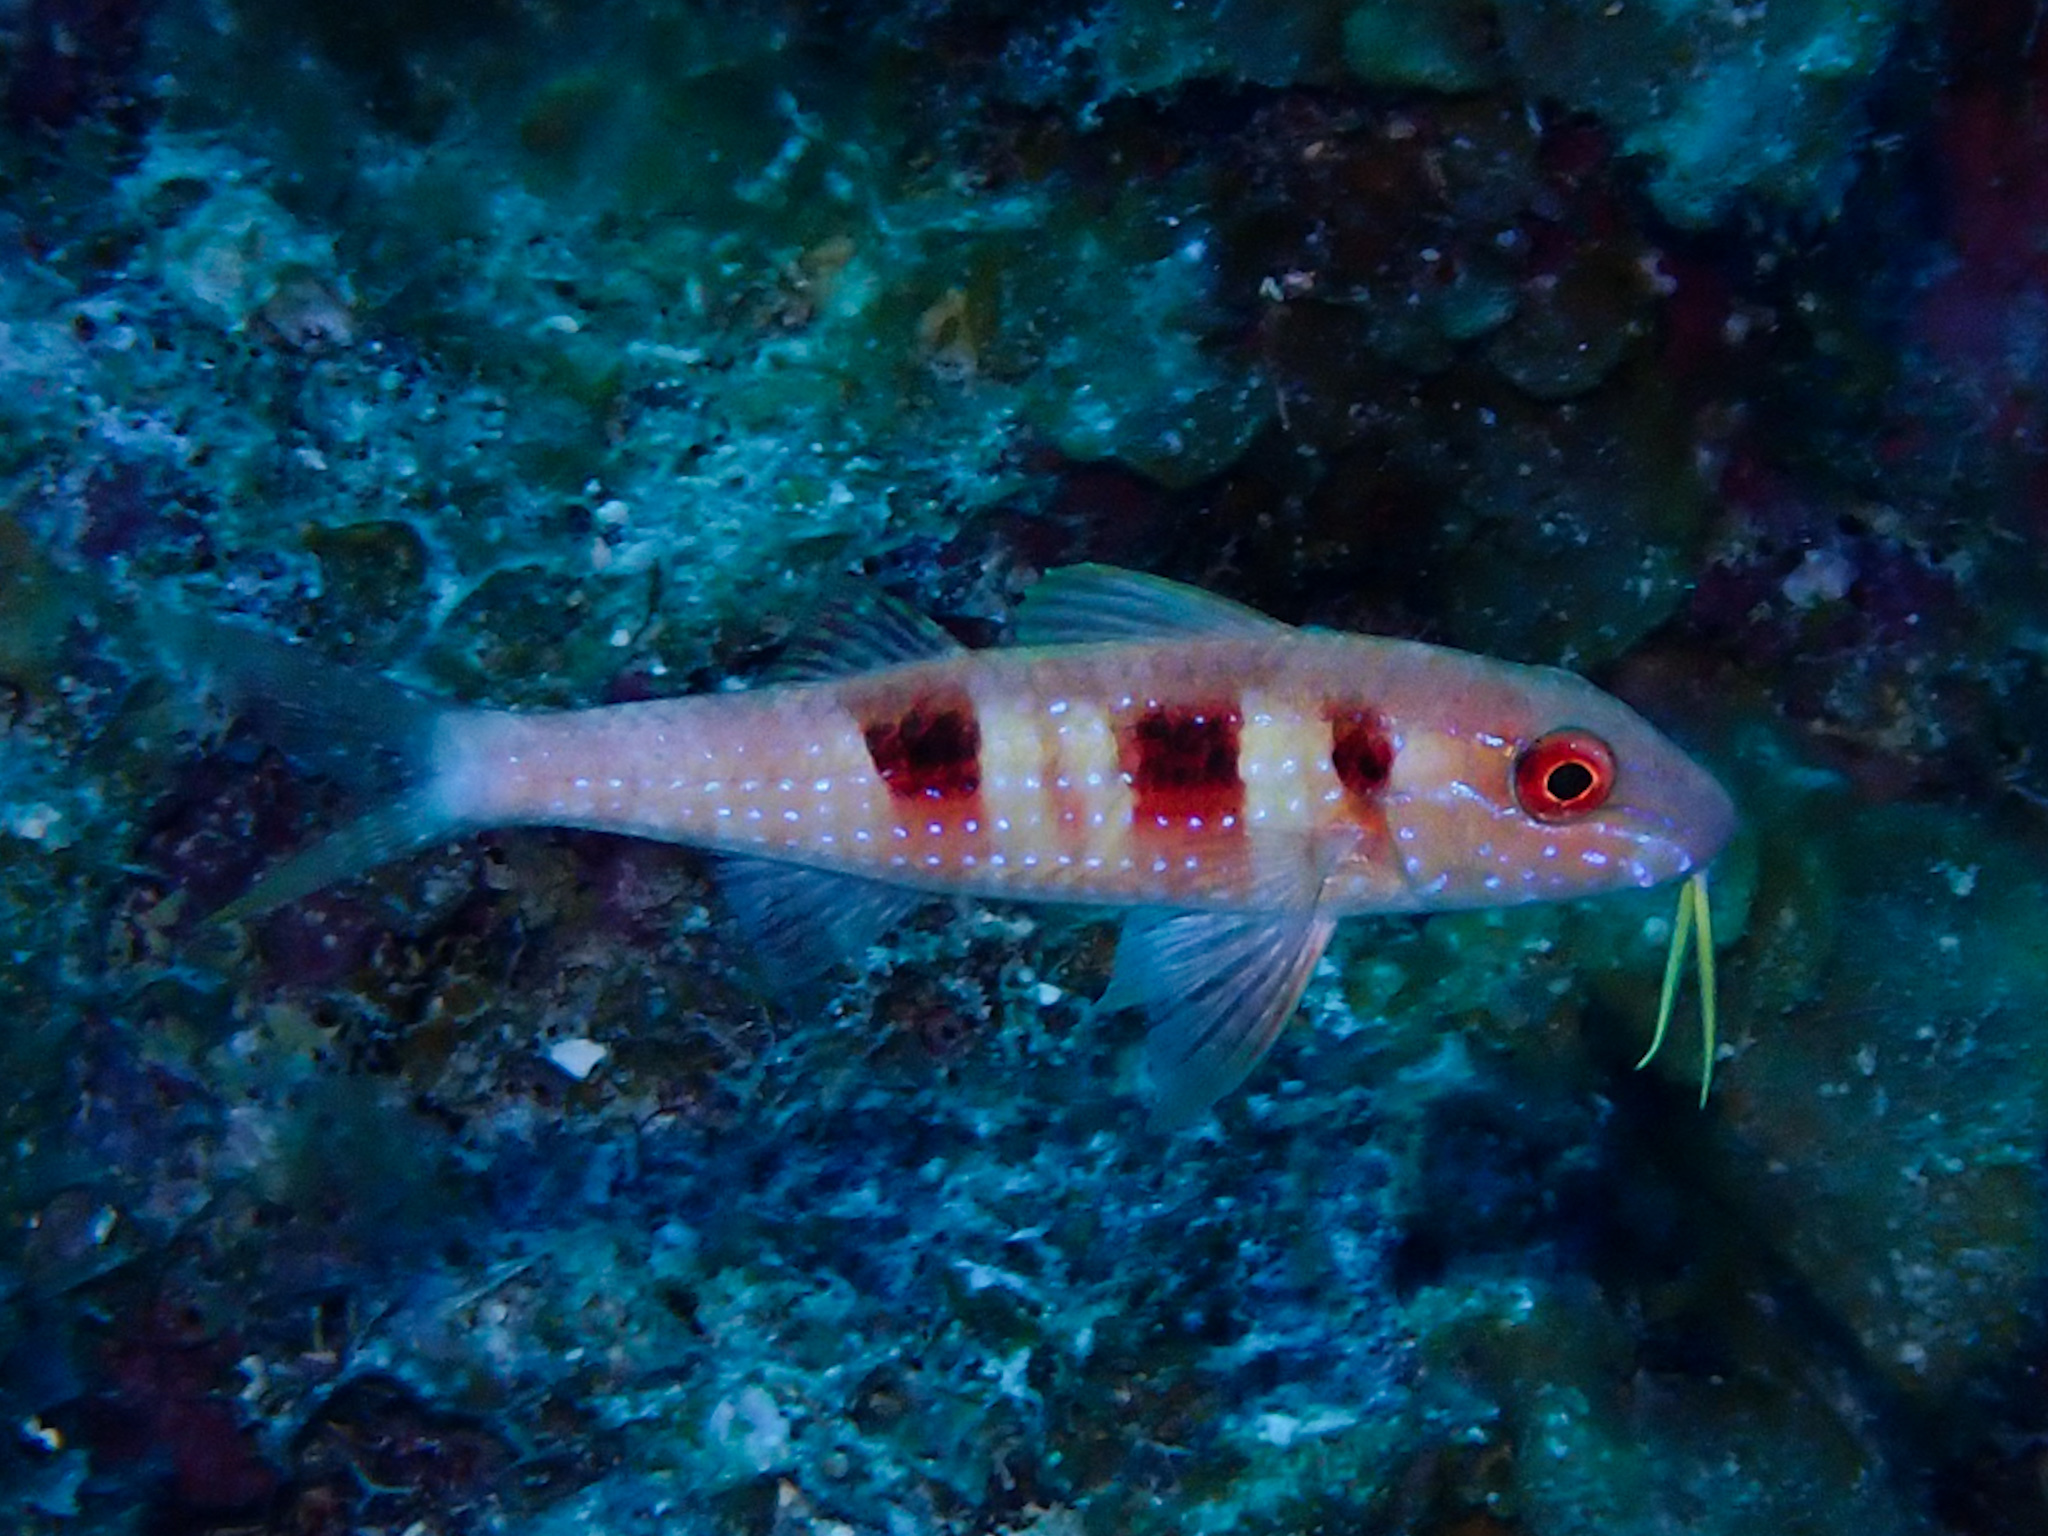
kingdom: Animalia
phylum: Chordata
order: Perciformes
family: Mullidae
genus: Pseudupeneus
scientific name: Pseudupeneus maculatus
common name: Spotted goatfish
